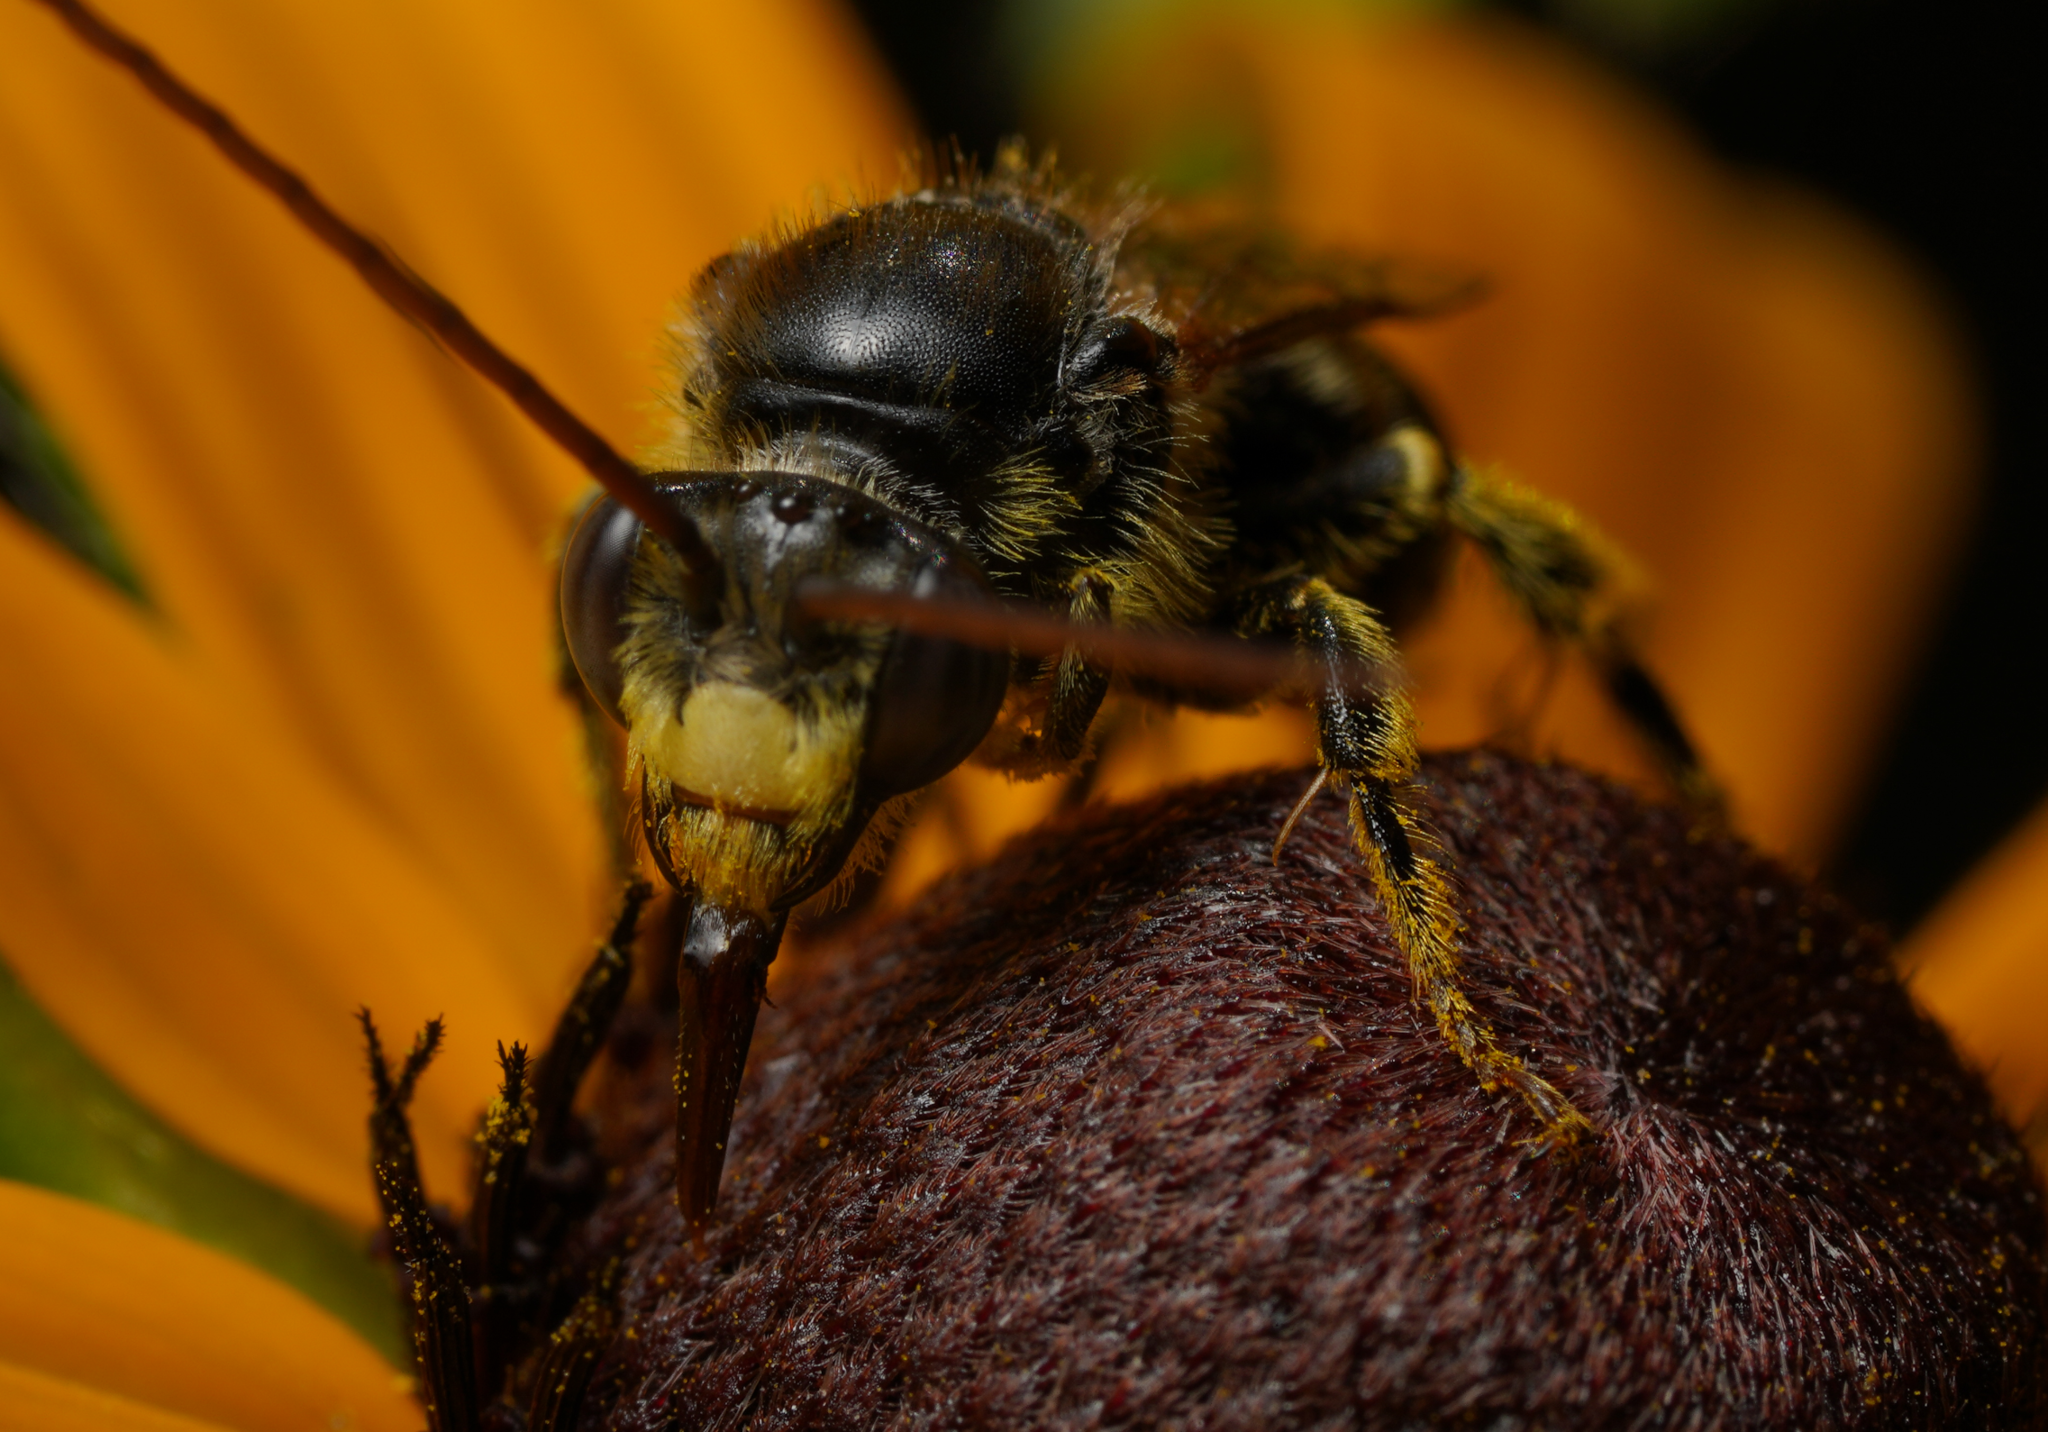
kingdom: Animalia
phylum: Arthropoda
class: Insecta
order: Hymenoptera
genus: Eumelissodes
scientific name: Eumelissodes
